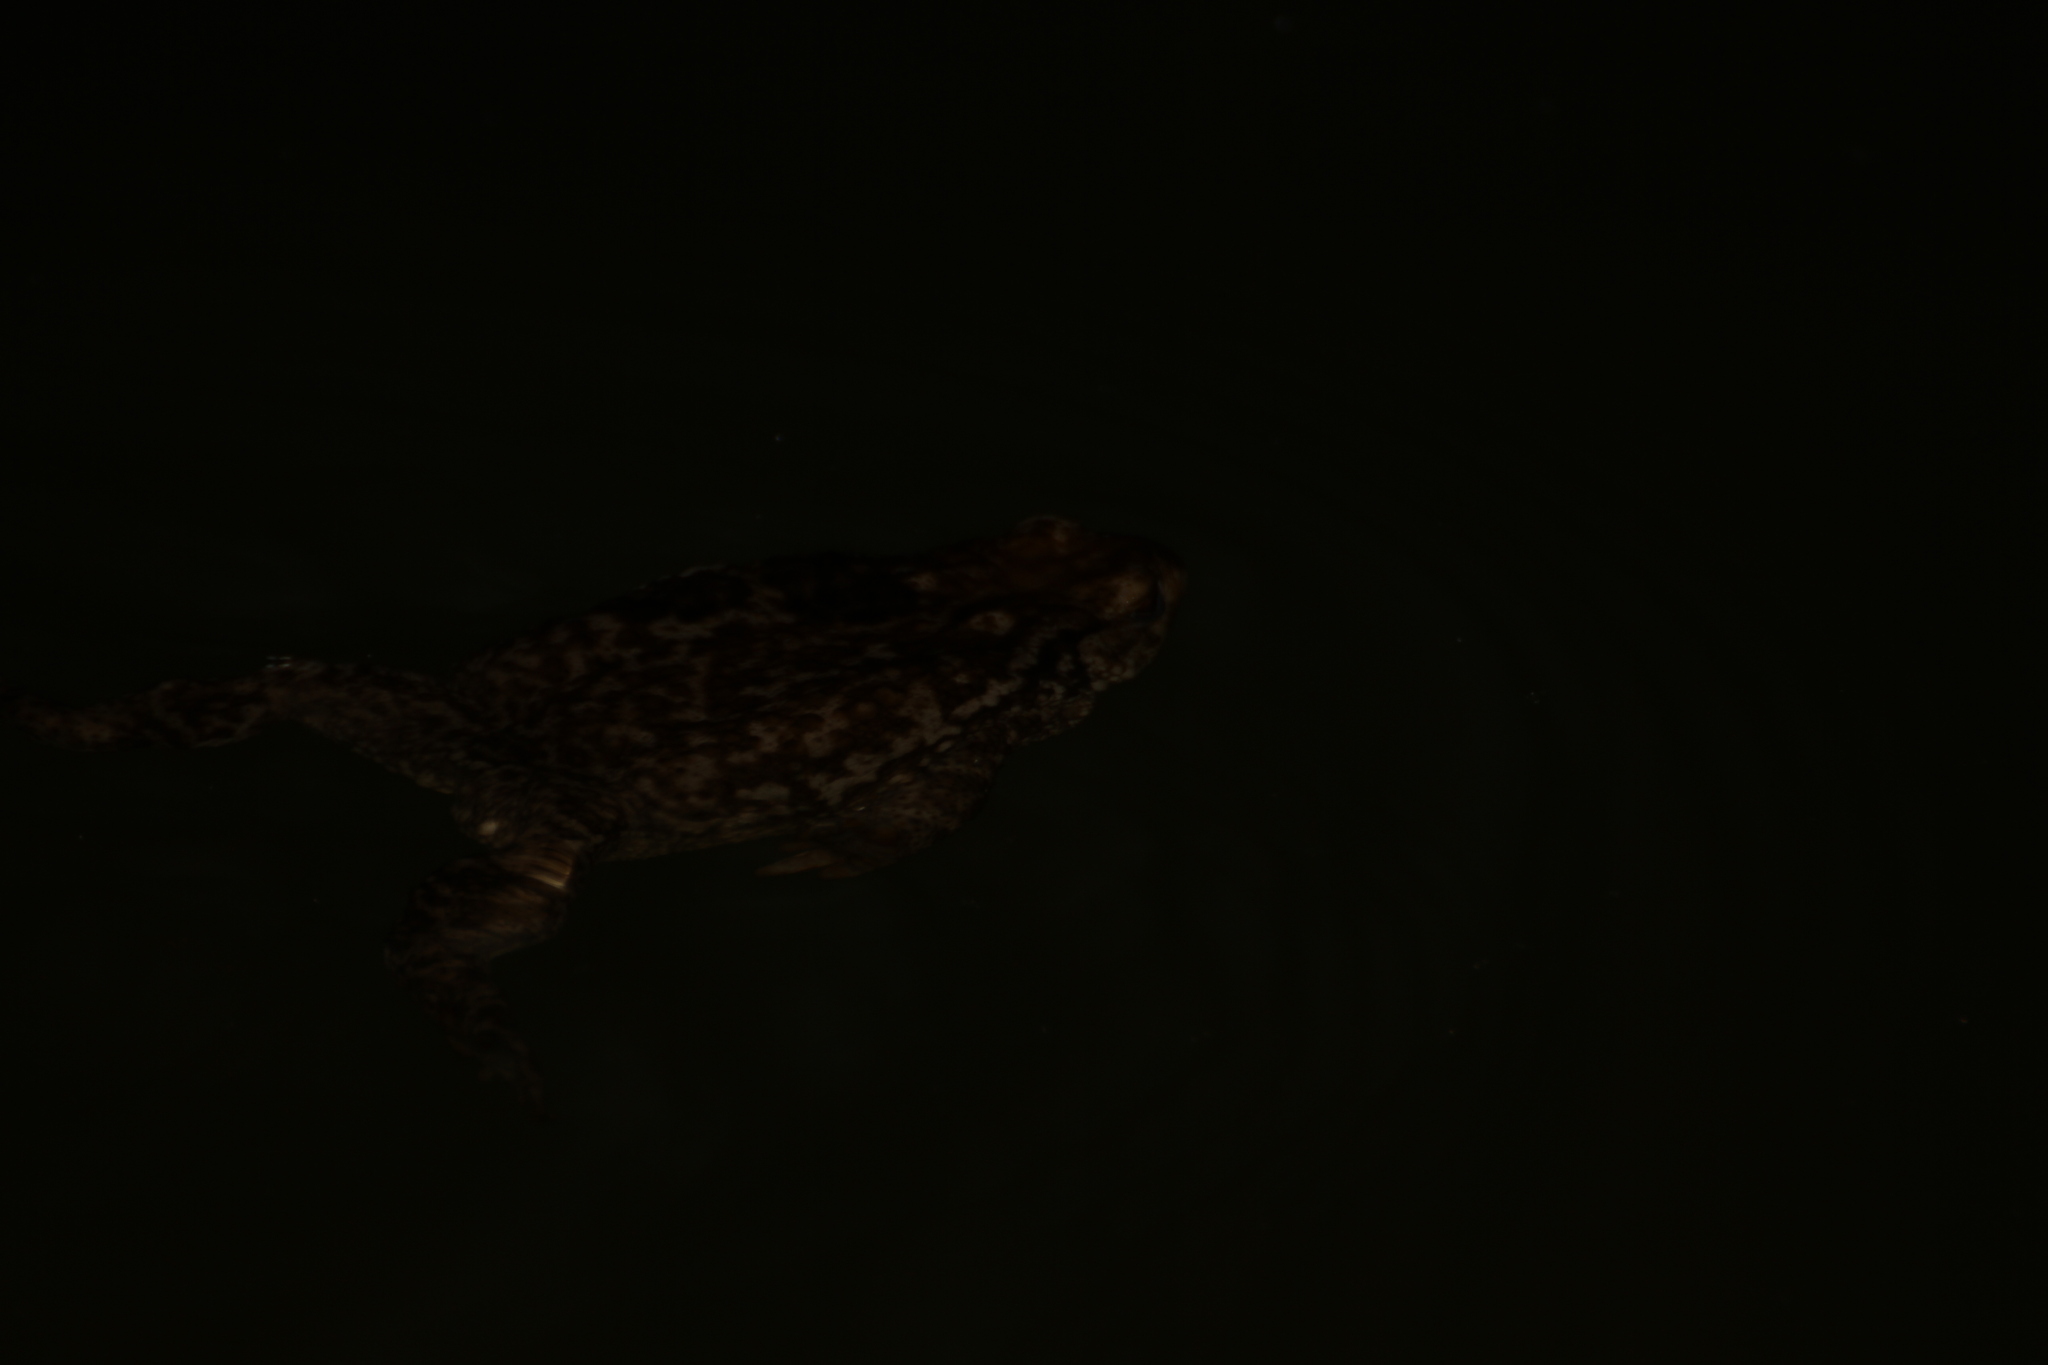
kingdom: Animalia
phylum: Chordata
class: Amphibia
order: Anura
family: Bufonidae
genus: Bufo
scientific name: Bufo spinosus
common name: Western common toad
